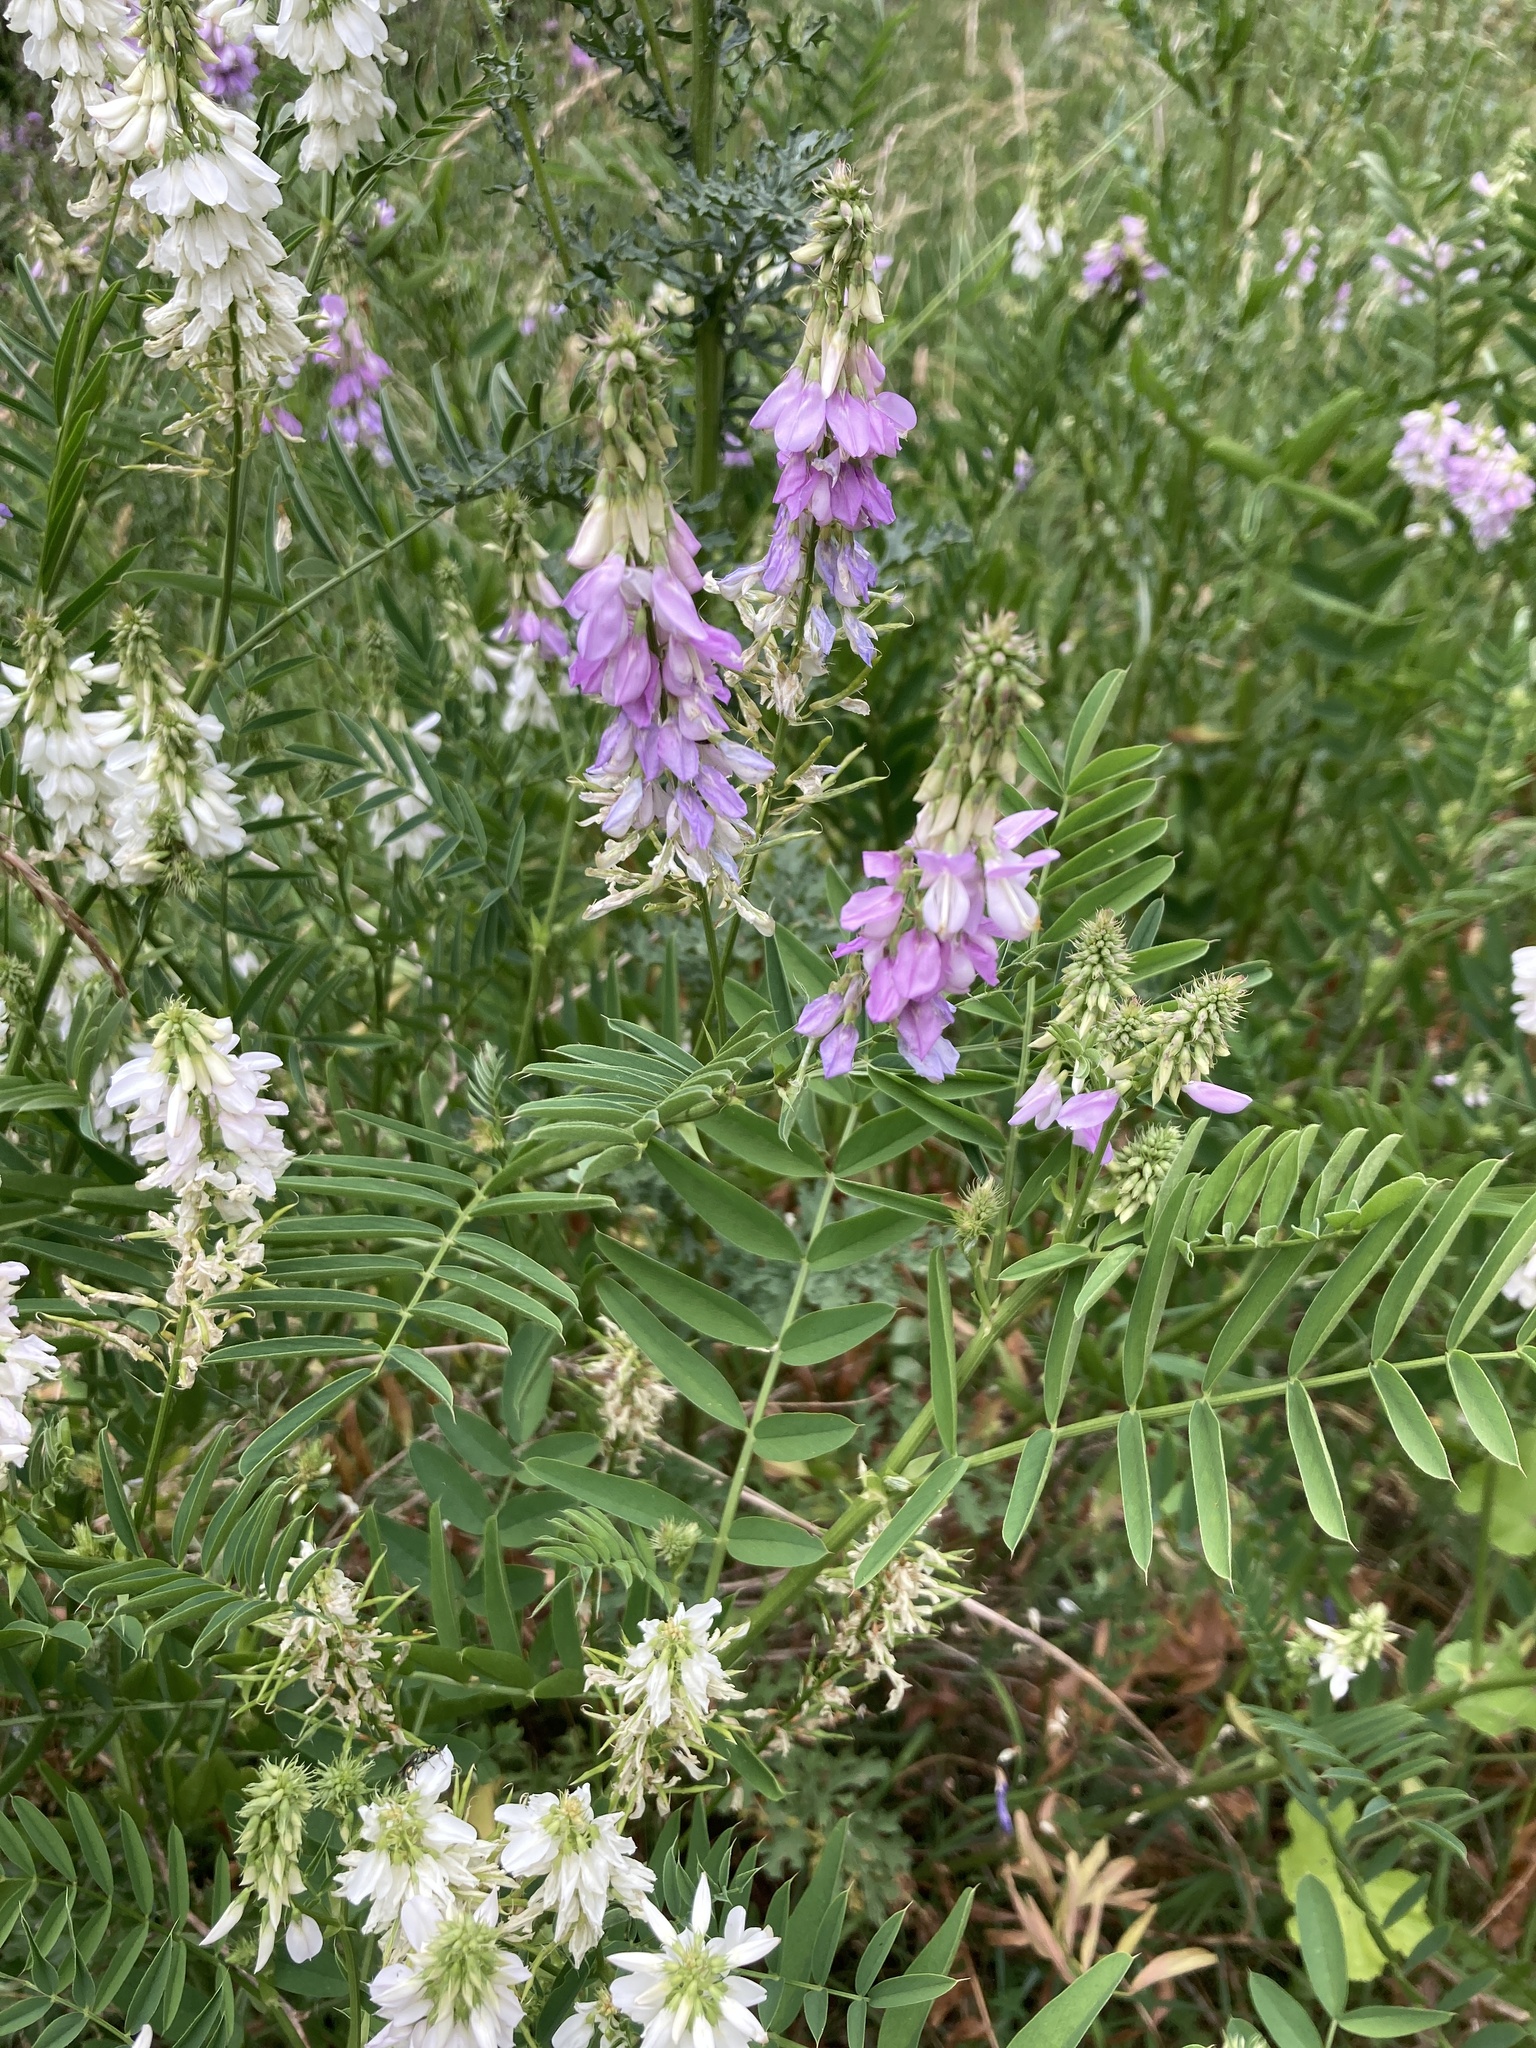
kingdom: Plantae
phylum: Tracheophyta
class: Magnoliopsida
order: Fabales
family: Fabaceae
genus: Galega
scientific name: Galega officinalis
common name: Goat's-rue
